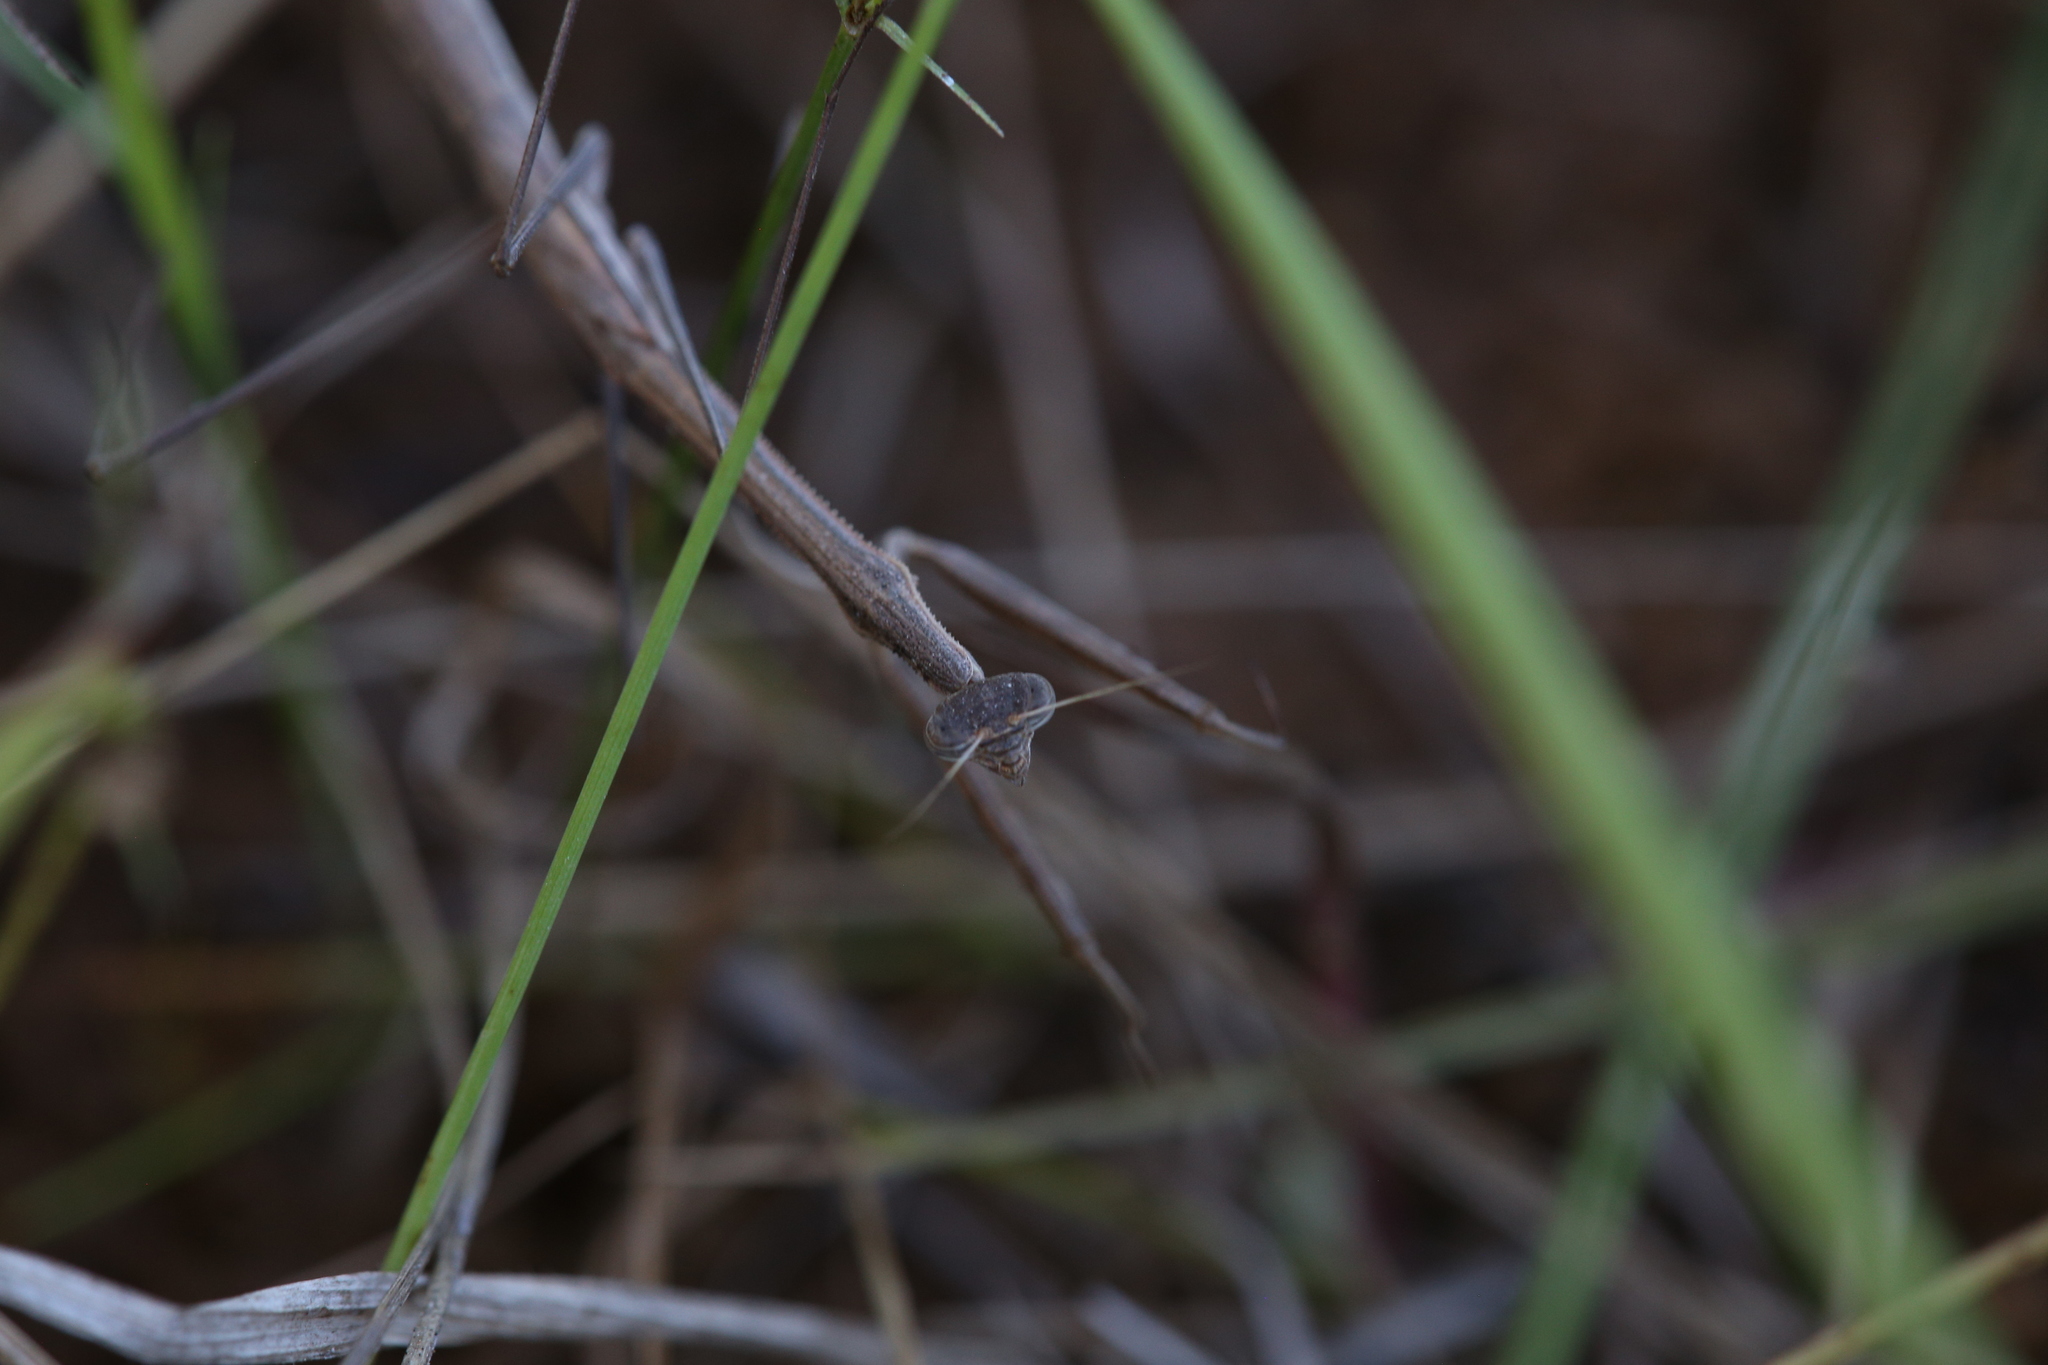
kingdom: Animalia
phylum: Arthropoda
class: Insecta
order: Mantodea
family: Mantidae
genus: Rhodomantis
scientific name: Rhodomantis helenae
